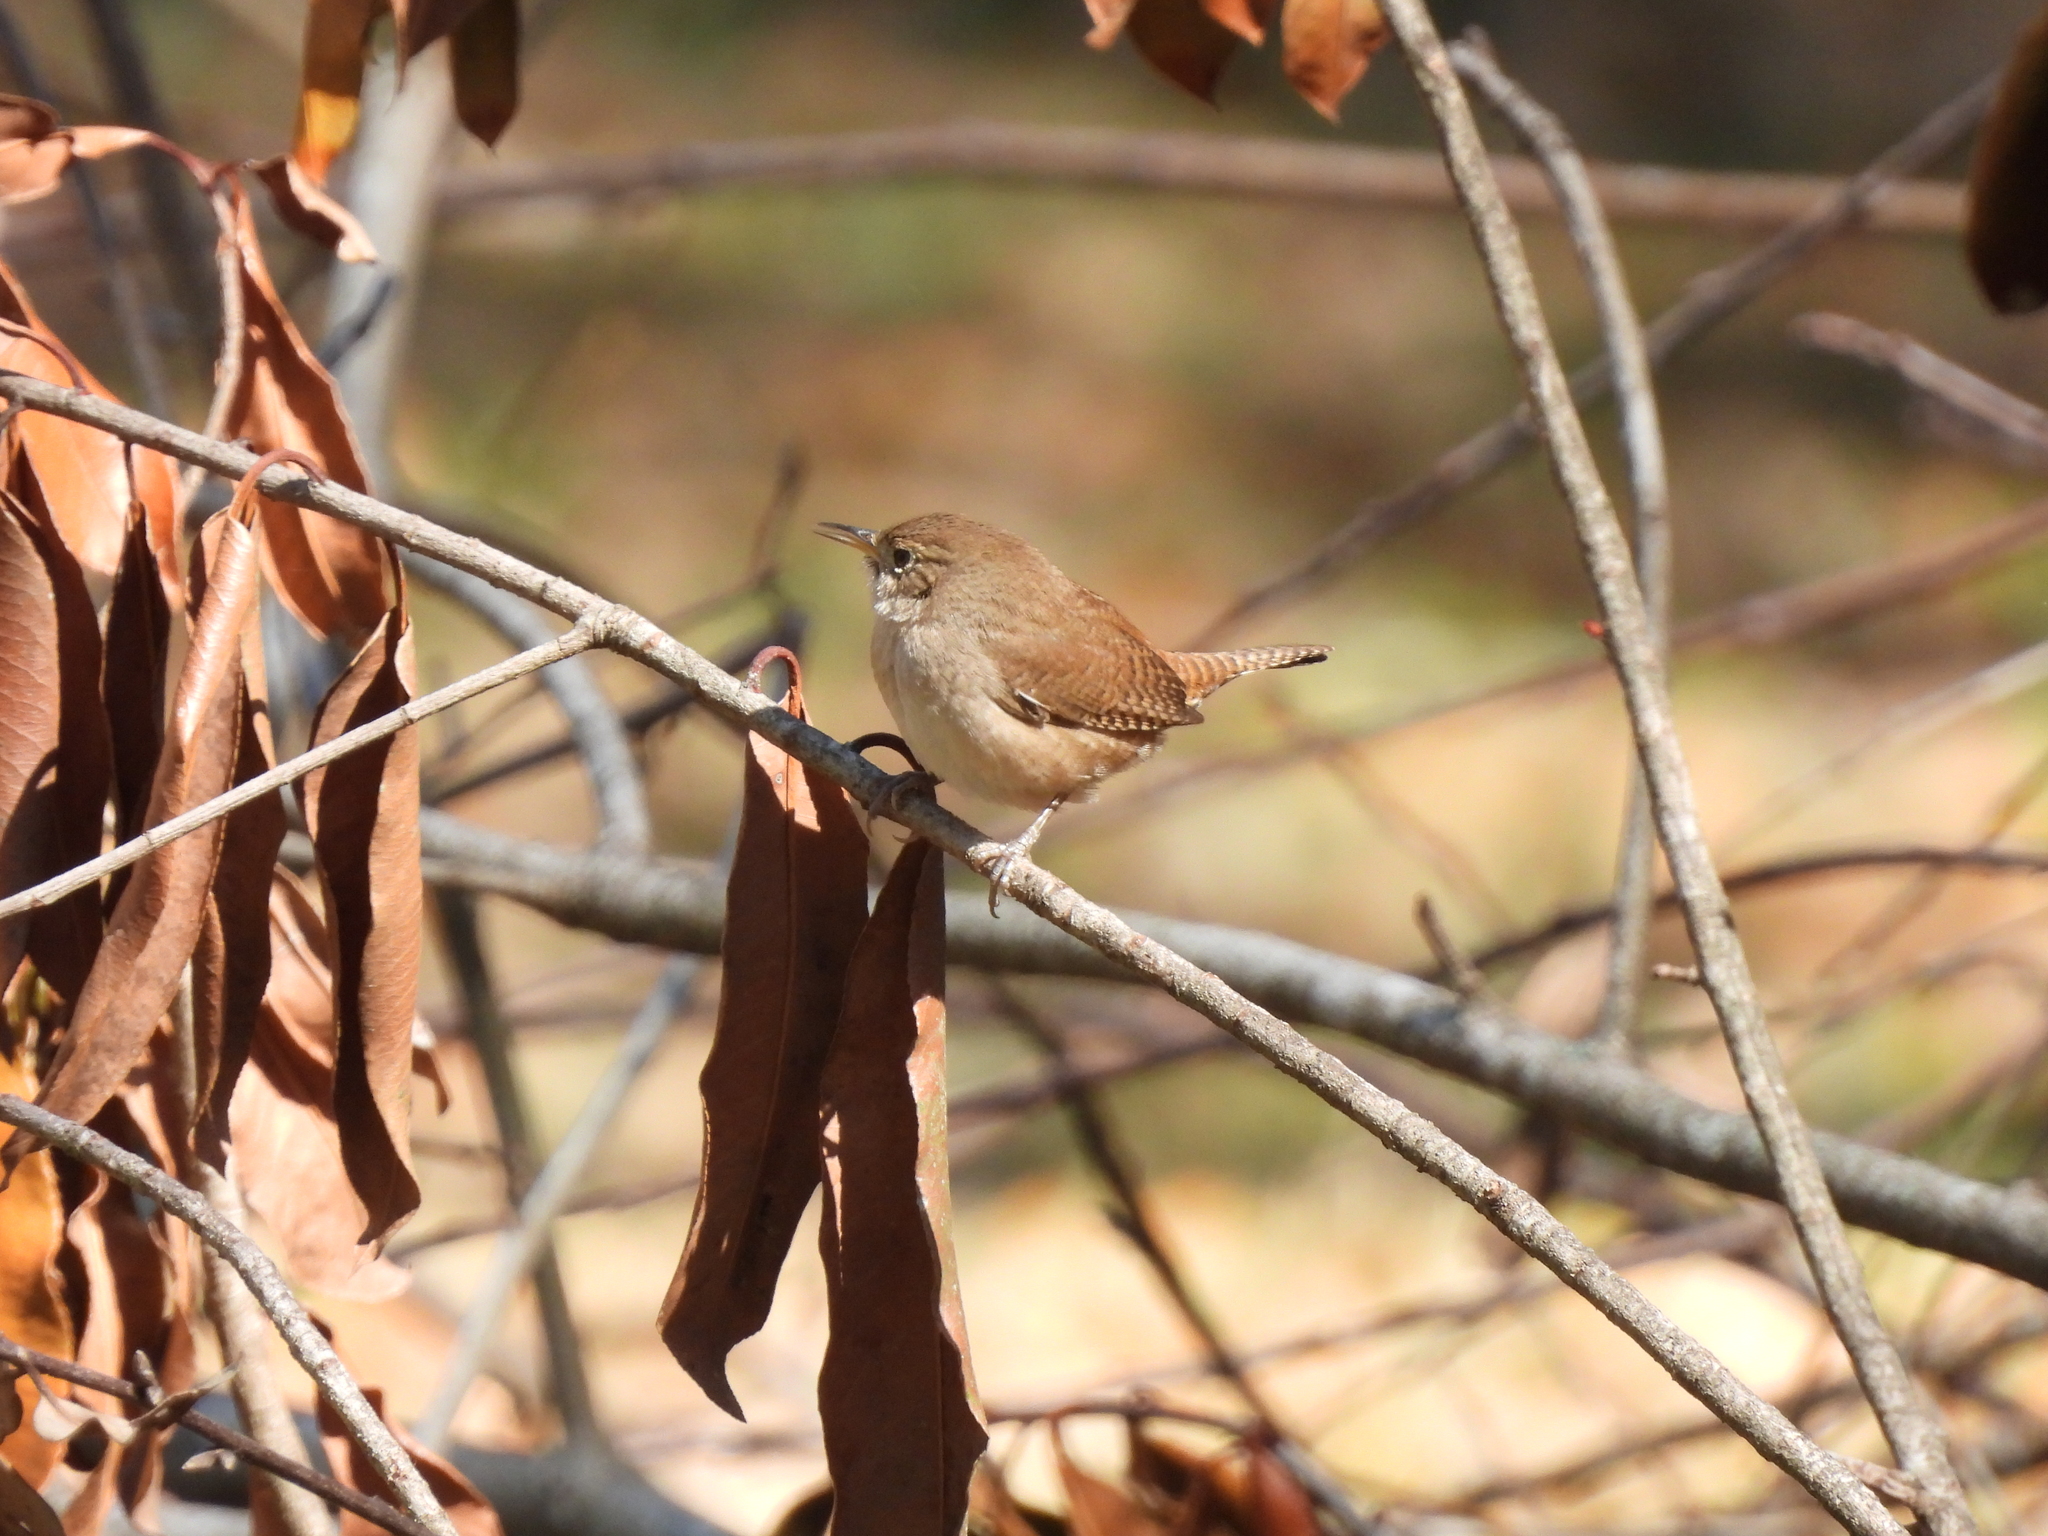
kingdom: Animalia
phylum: Chordata
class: Aves
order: Passeriformes
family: Troglodytidae
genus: Troglodytes
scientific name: Troglodytes aedon
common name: House wren
